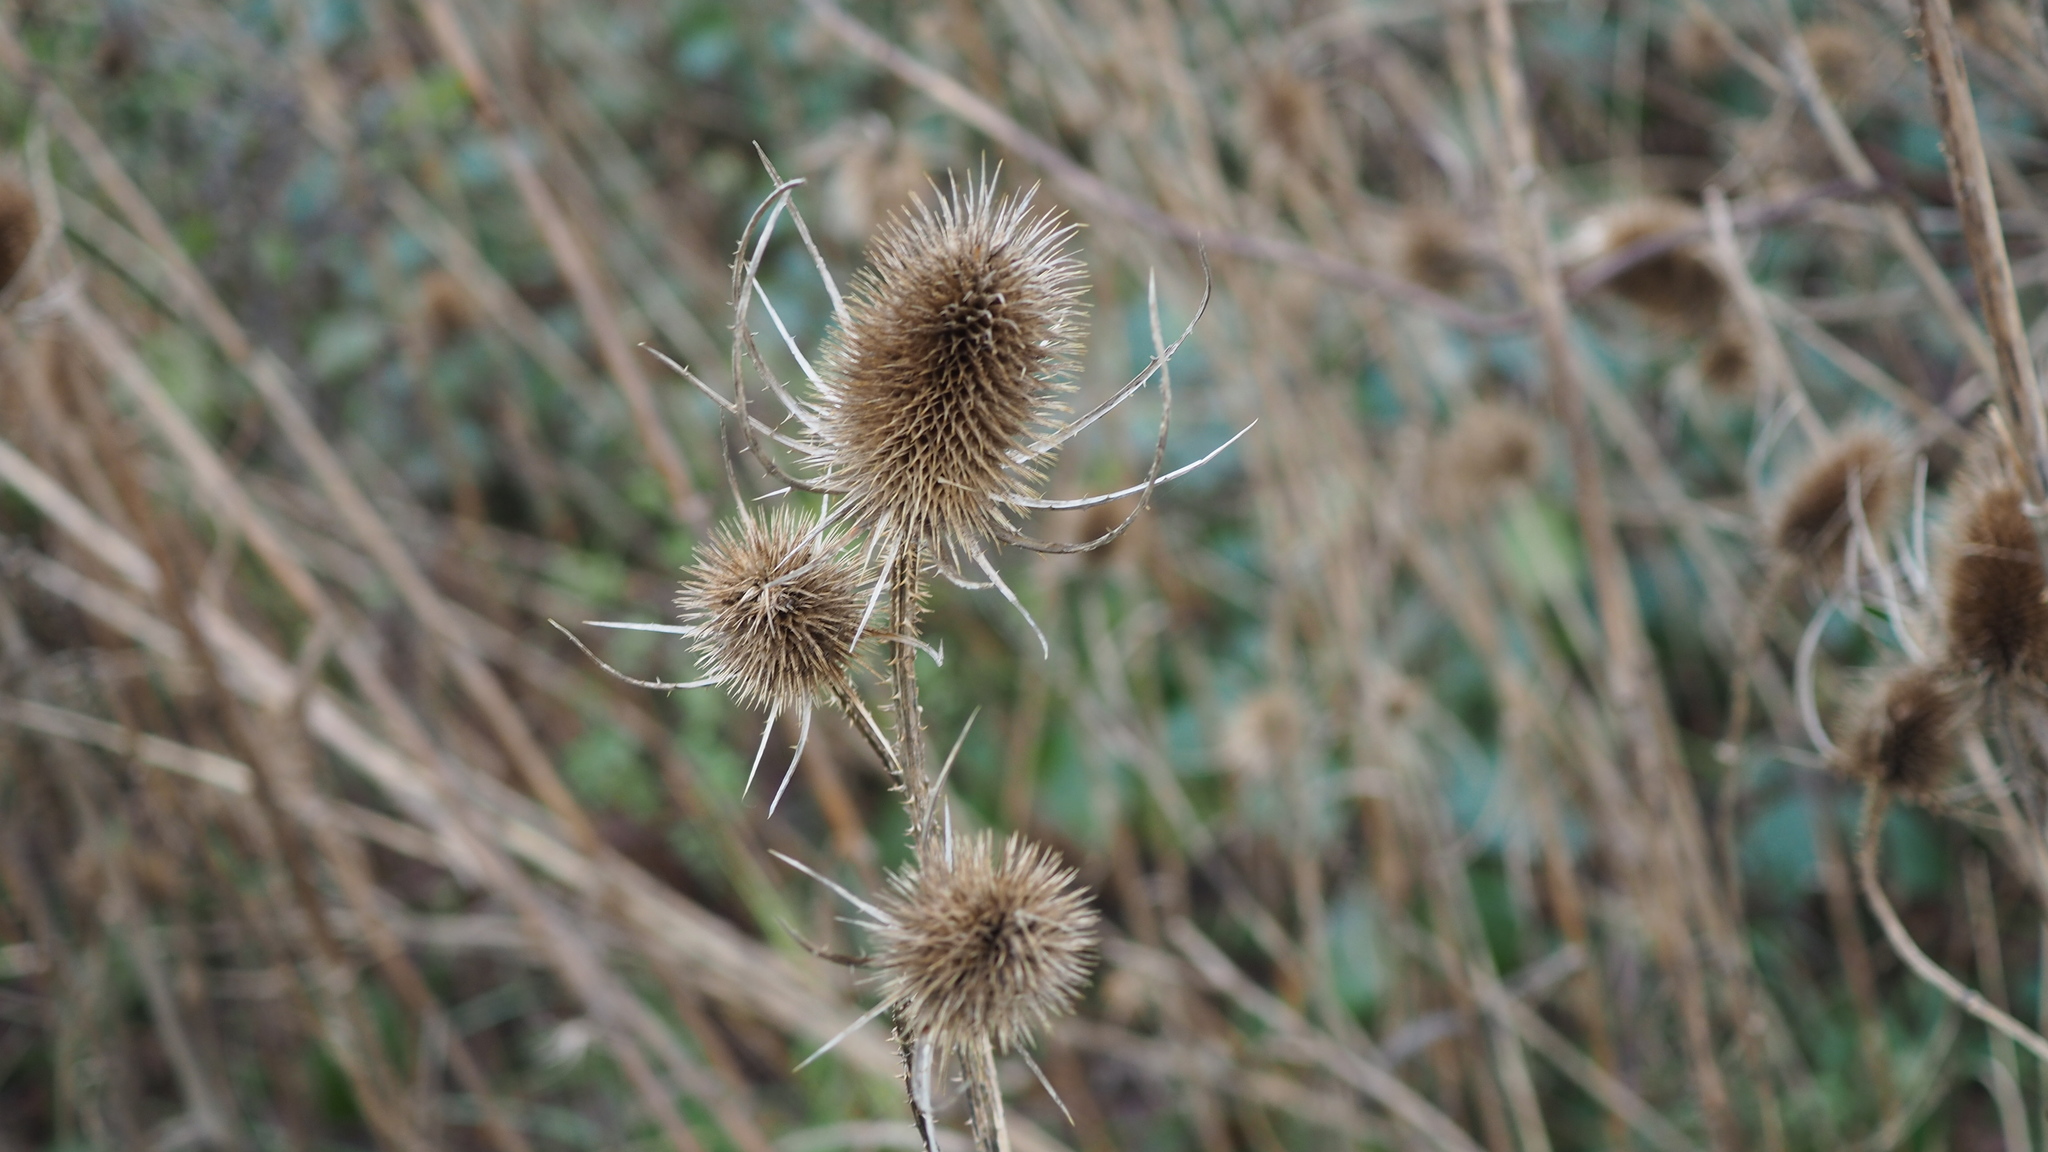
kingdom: Plantae
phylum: Tracheophyta
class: Magnoliopsida
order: Dipsacales
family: Caprifoliaceae
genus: Dipsacus
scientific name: Dipsacus fullonum
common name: Teasel
